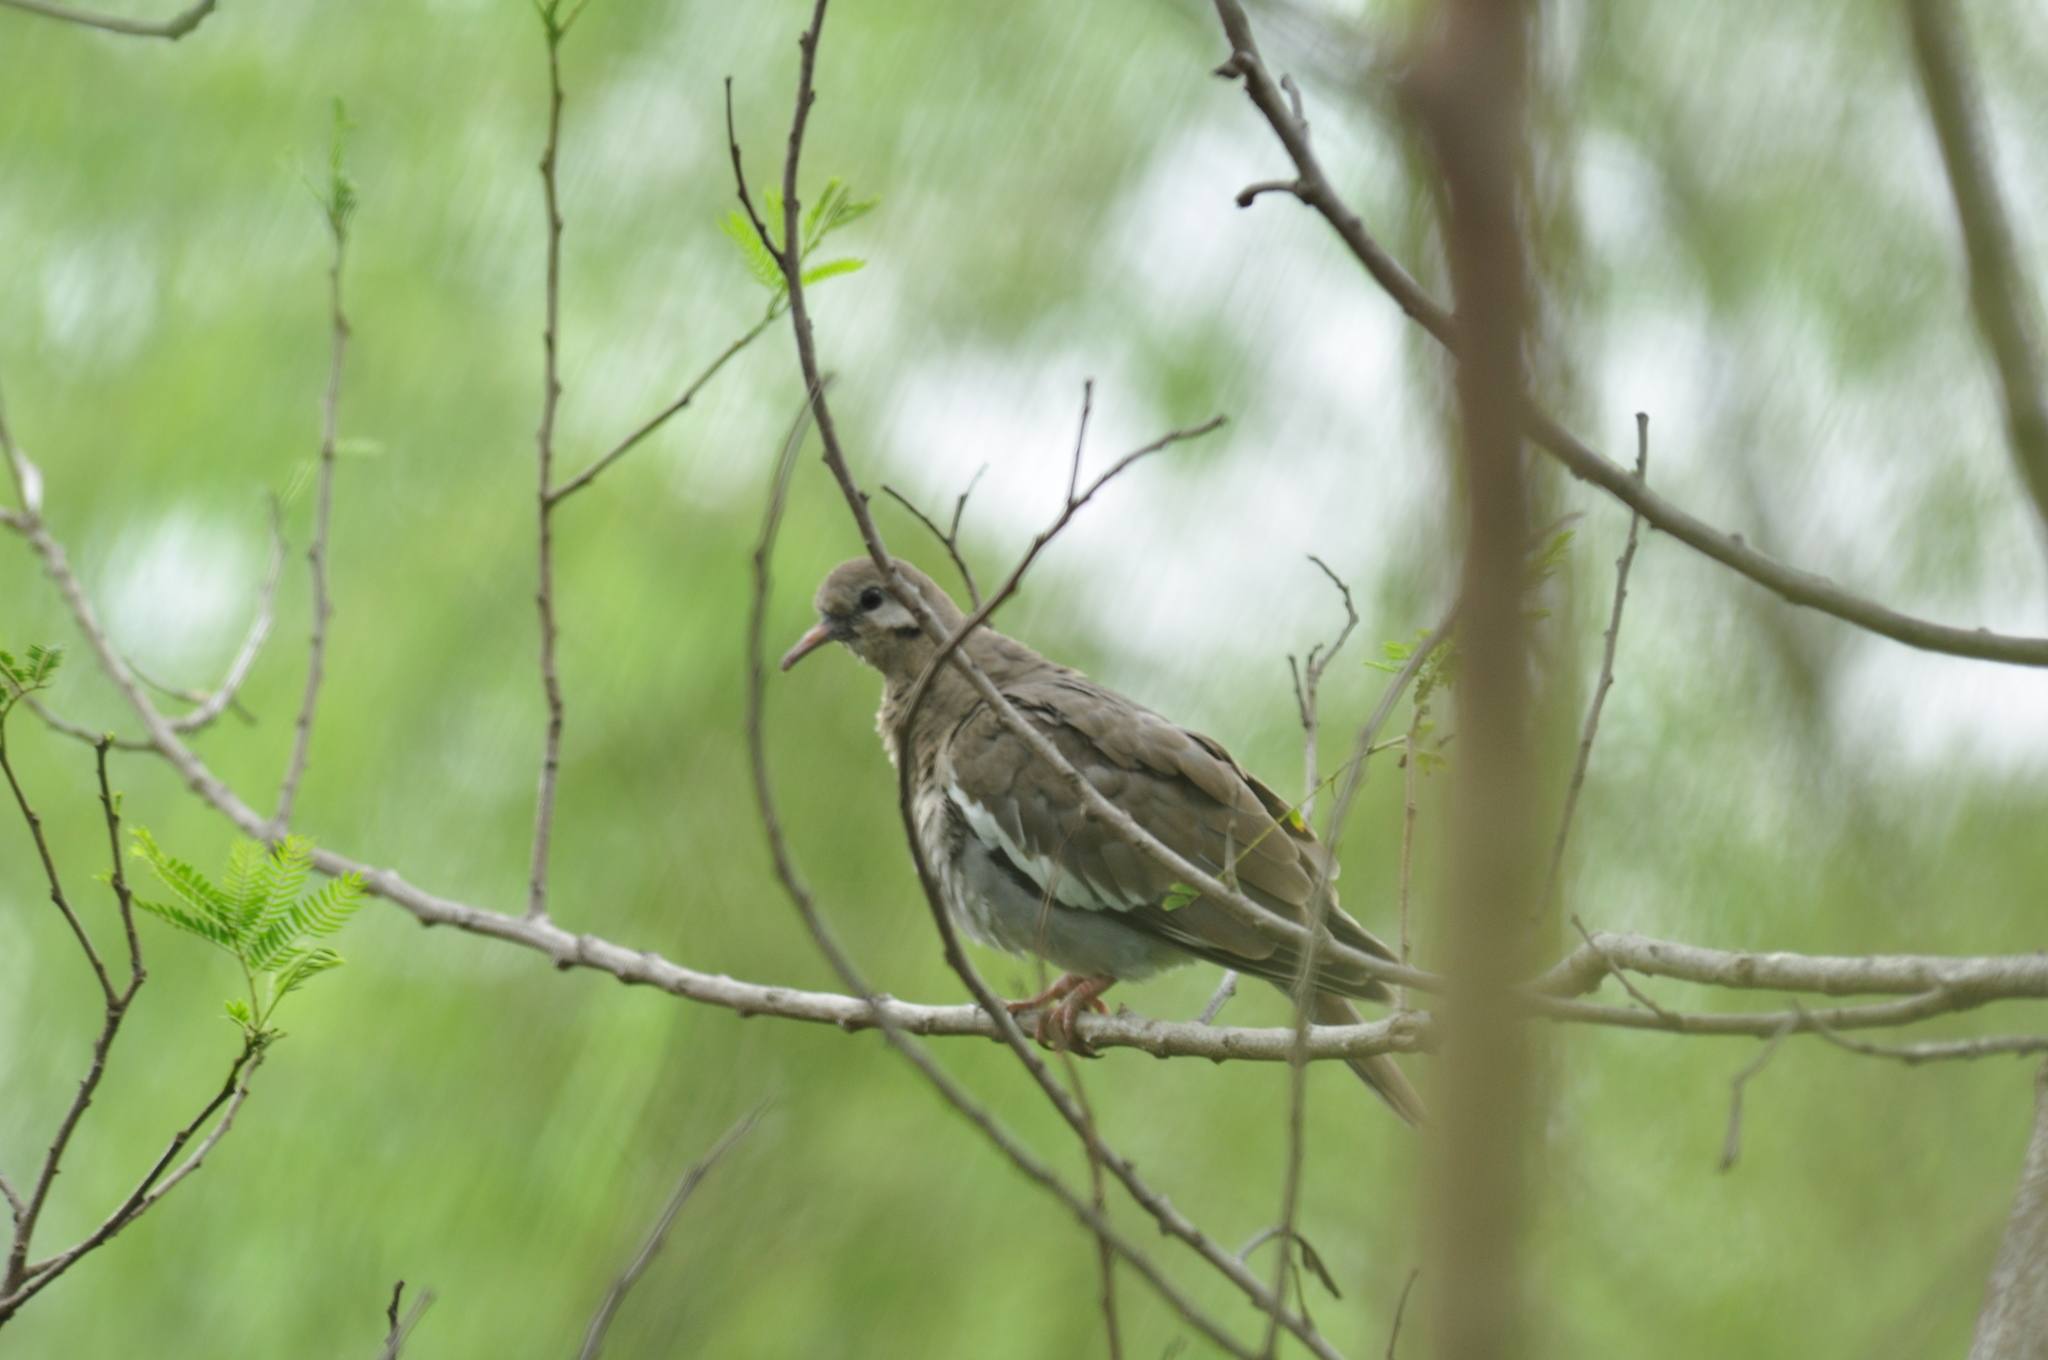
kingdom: Animalia
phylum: Chordata
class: Aves
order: Columbiformes
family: Columbidae
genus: Zenaida
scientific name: Zenaida asiatica
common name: White-winged dove
